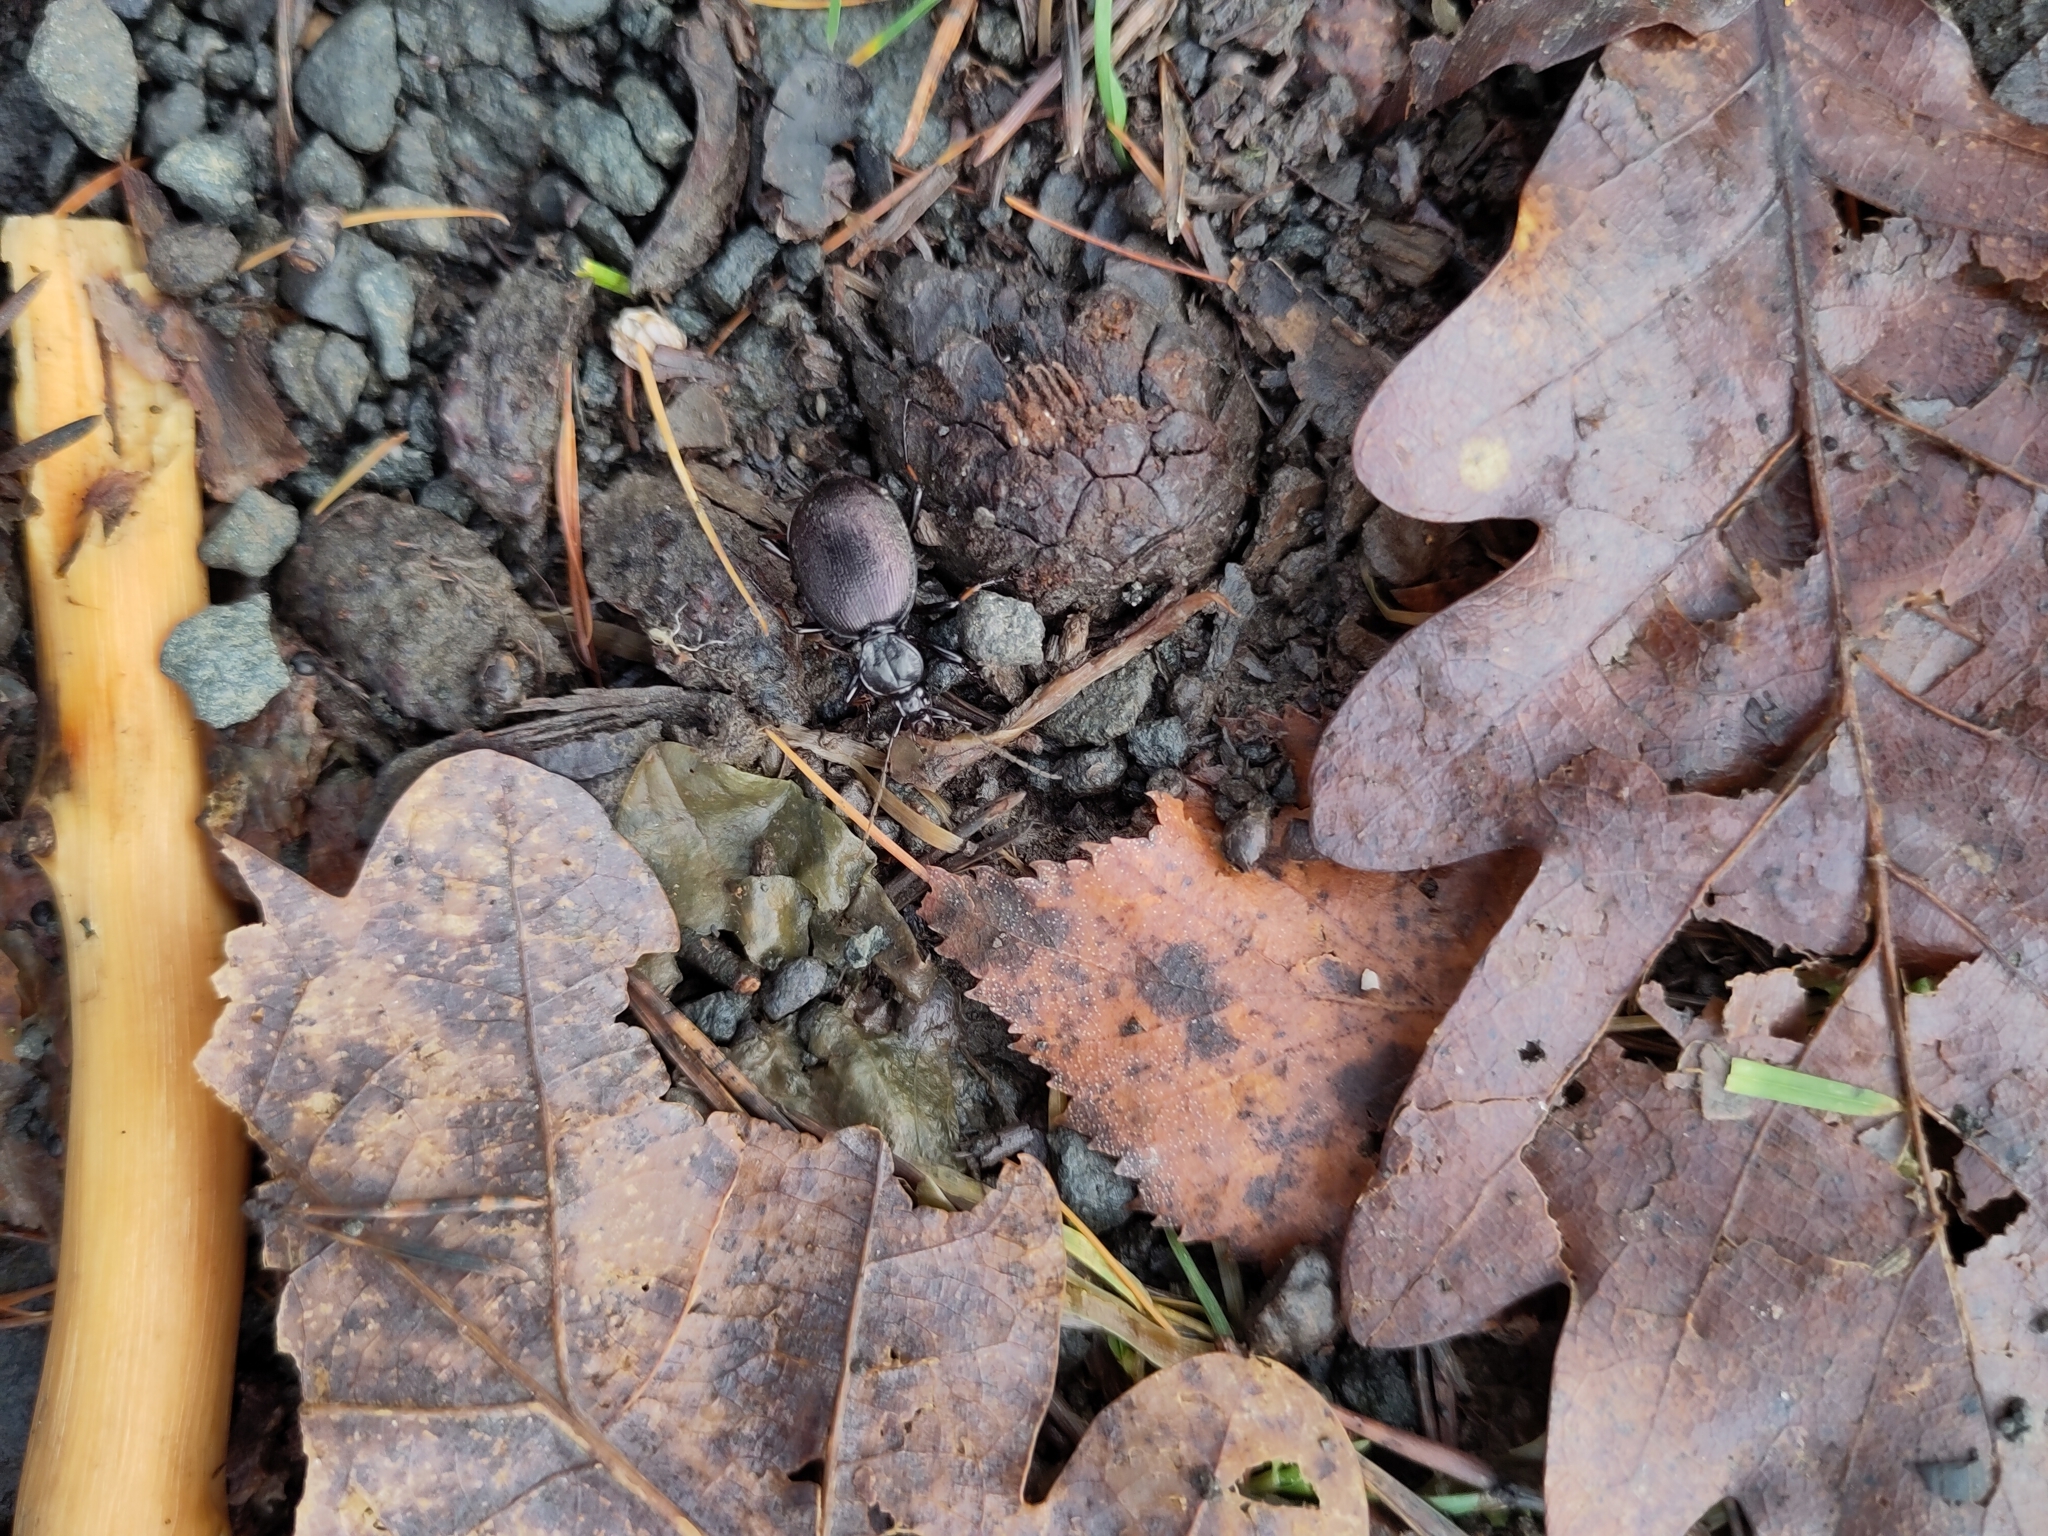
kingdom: Animalia
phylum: Arthropoda
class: Insecta
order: Coleoptera
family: Carabidae
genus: Cychrus
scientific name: Cychrus attenuatus
